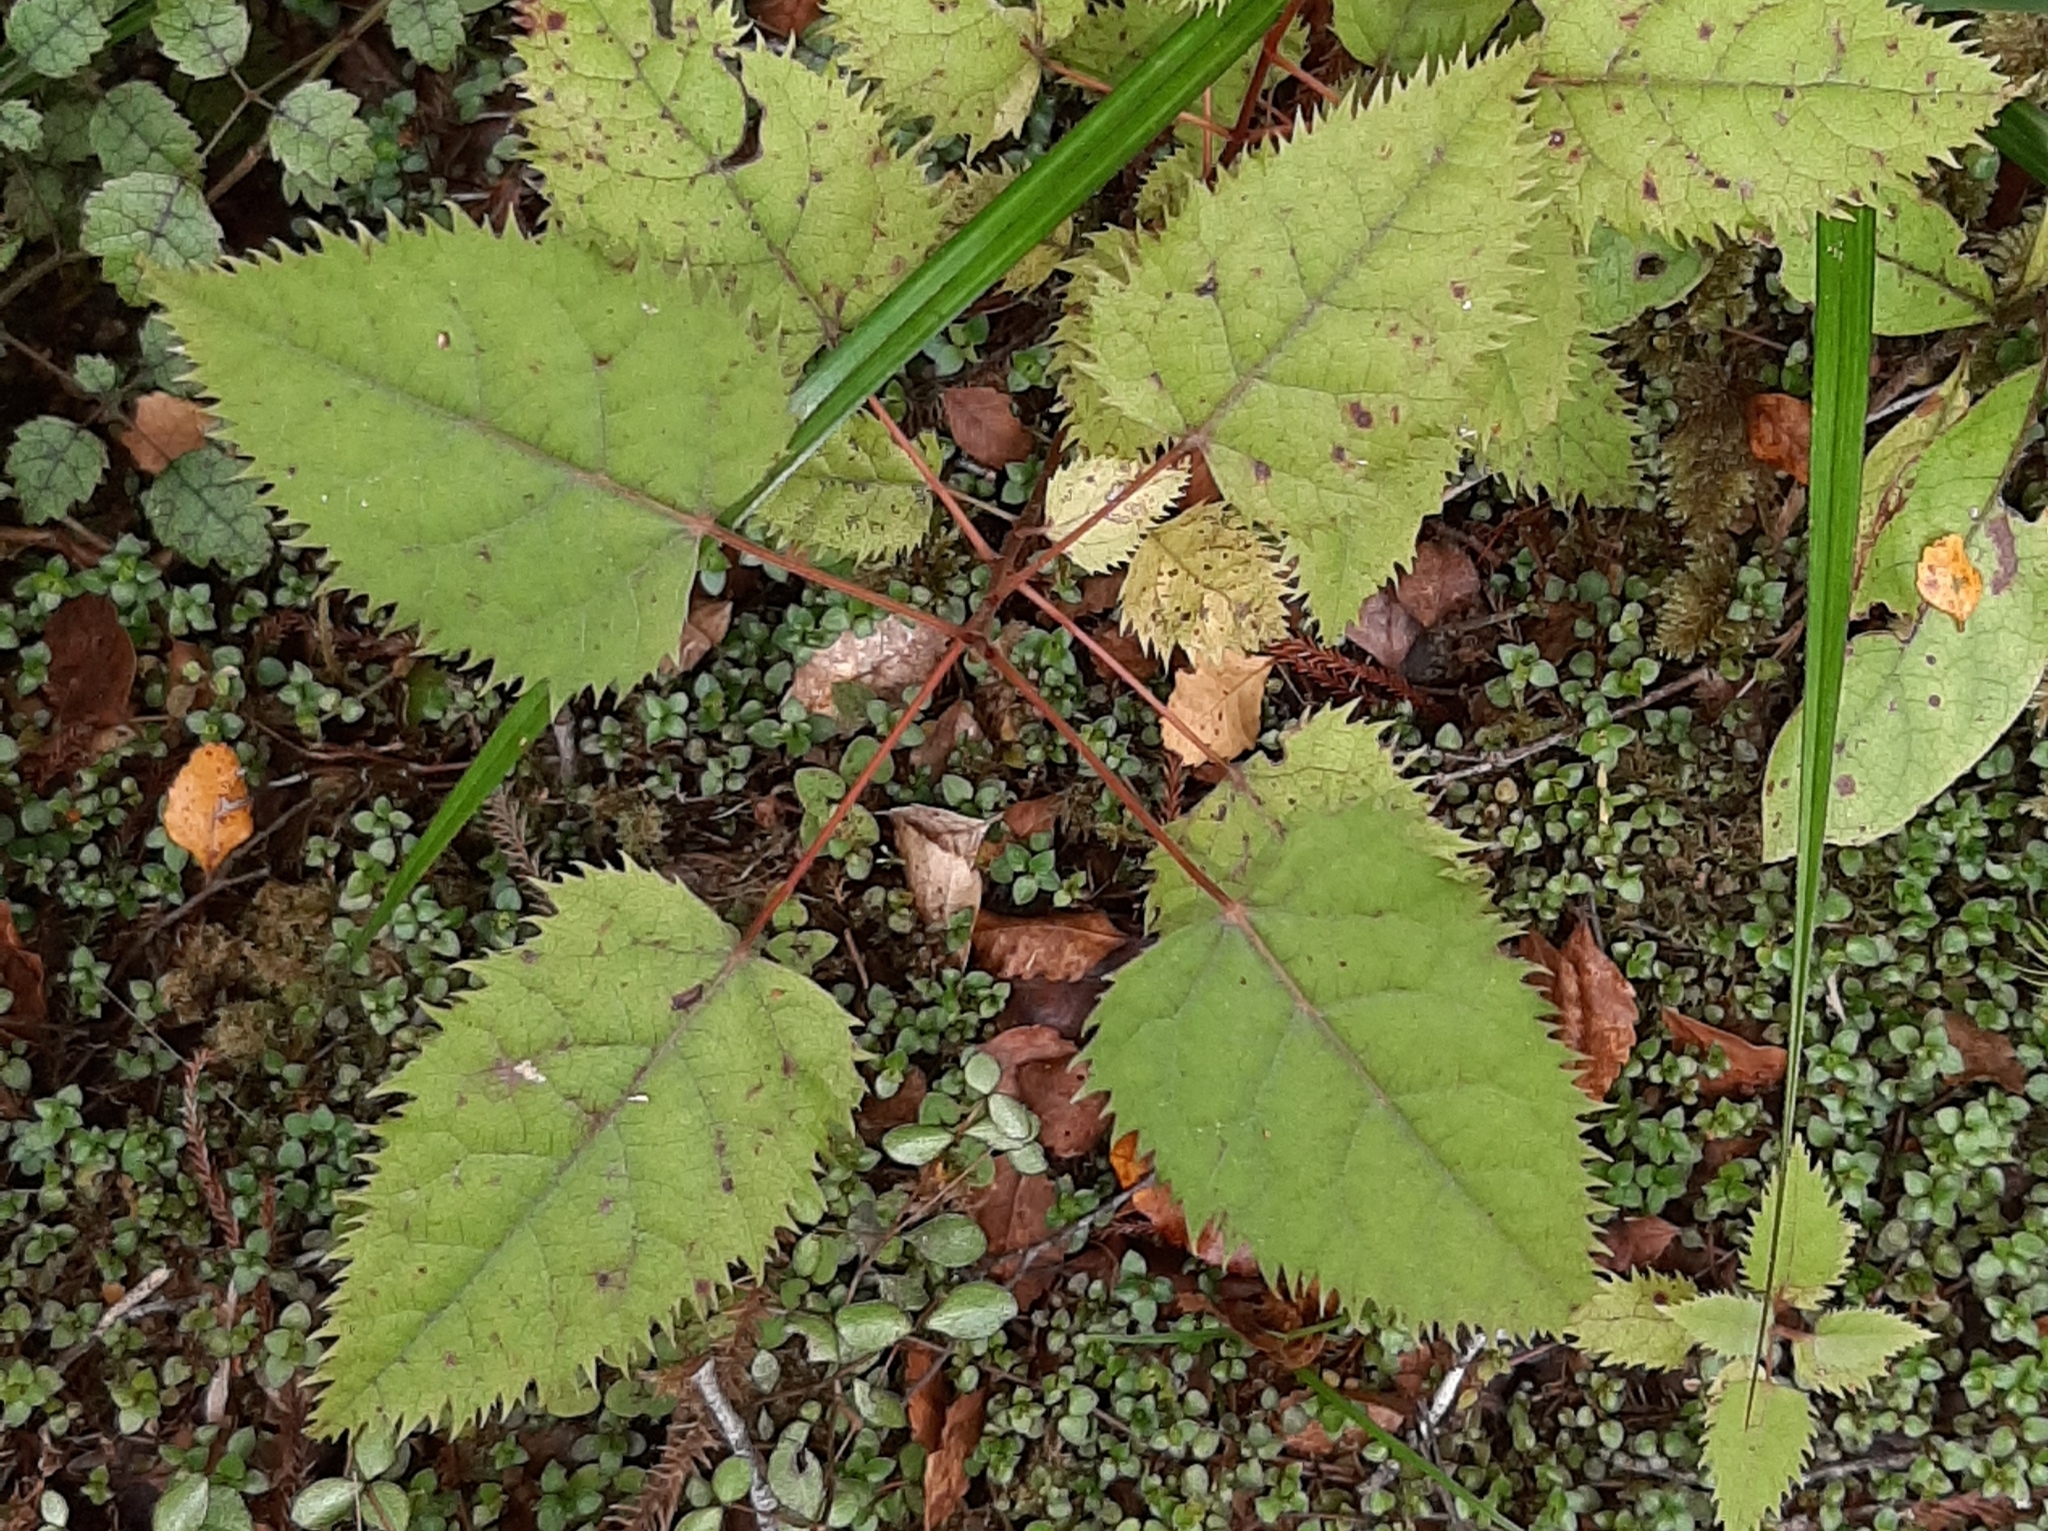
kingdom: Plantae
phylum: Tracheophyta
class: Magnoliopsida
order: Oxalidales
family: Elaeocarpaceae
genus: Aristotelia
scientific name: Aristotelia serrata
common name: New zealand wineberry
